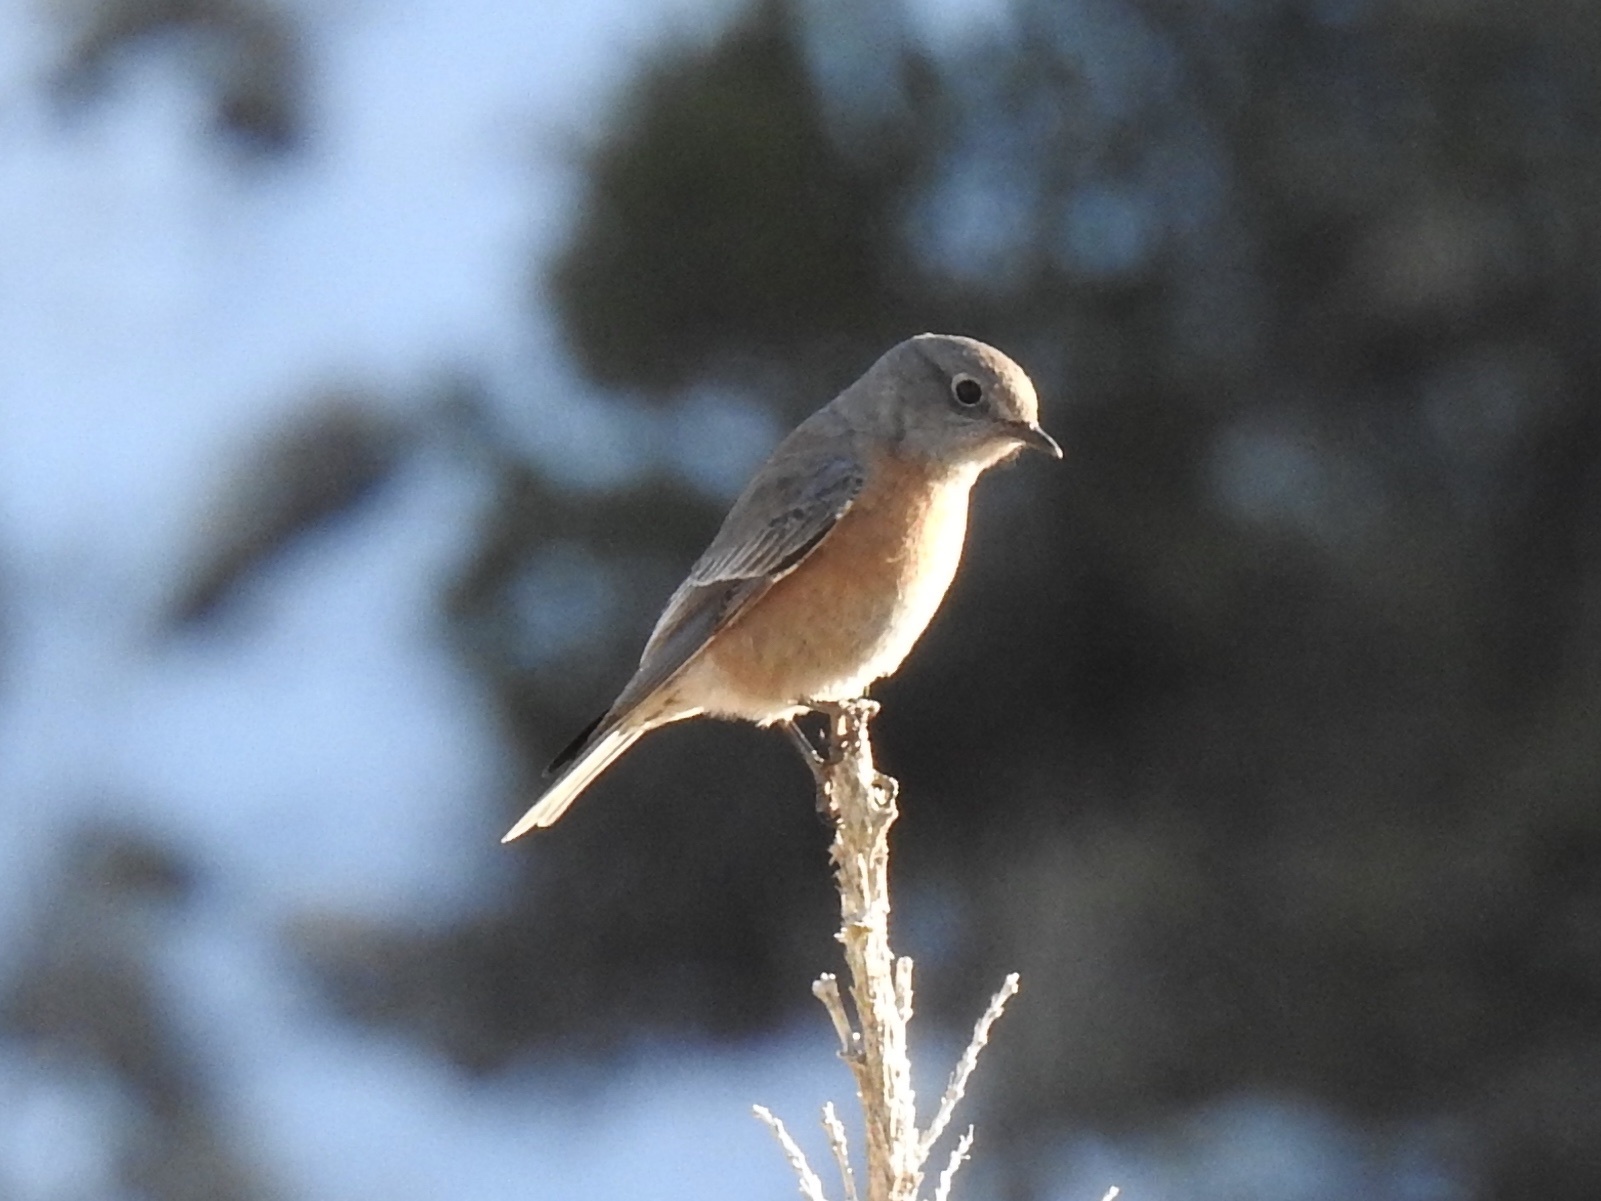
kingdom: Animalia
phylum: Chordata
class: Aves
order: Passeriformes
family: Turdidae
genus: Sialia
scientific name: Sialia mexicana
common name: Western bluebird
